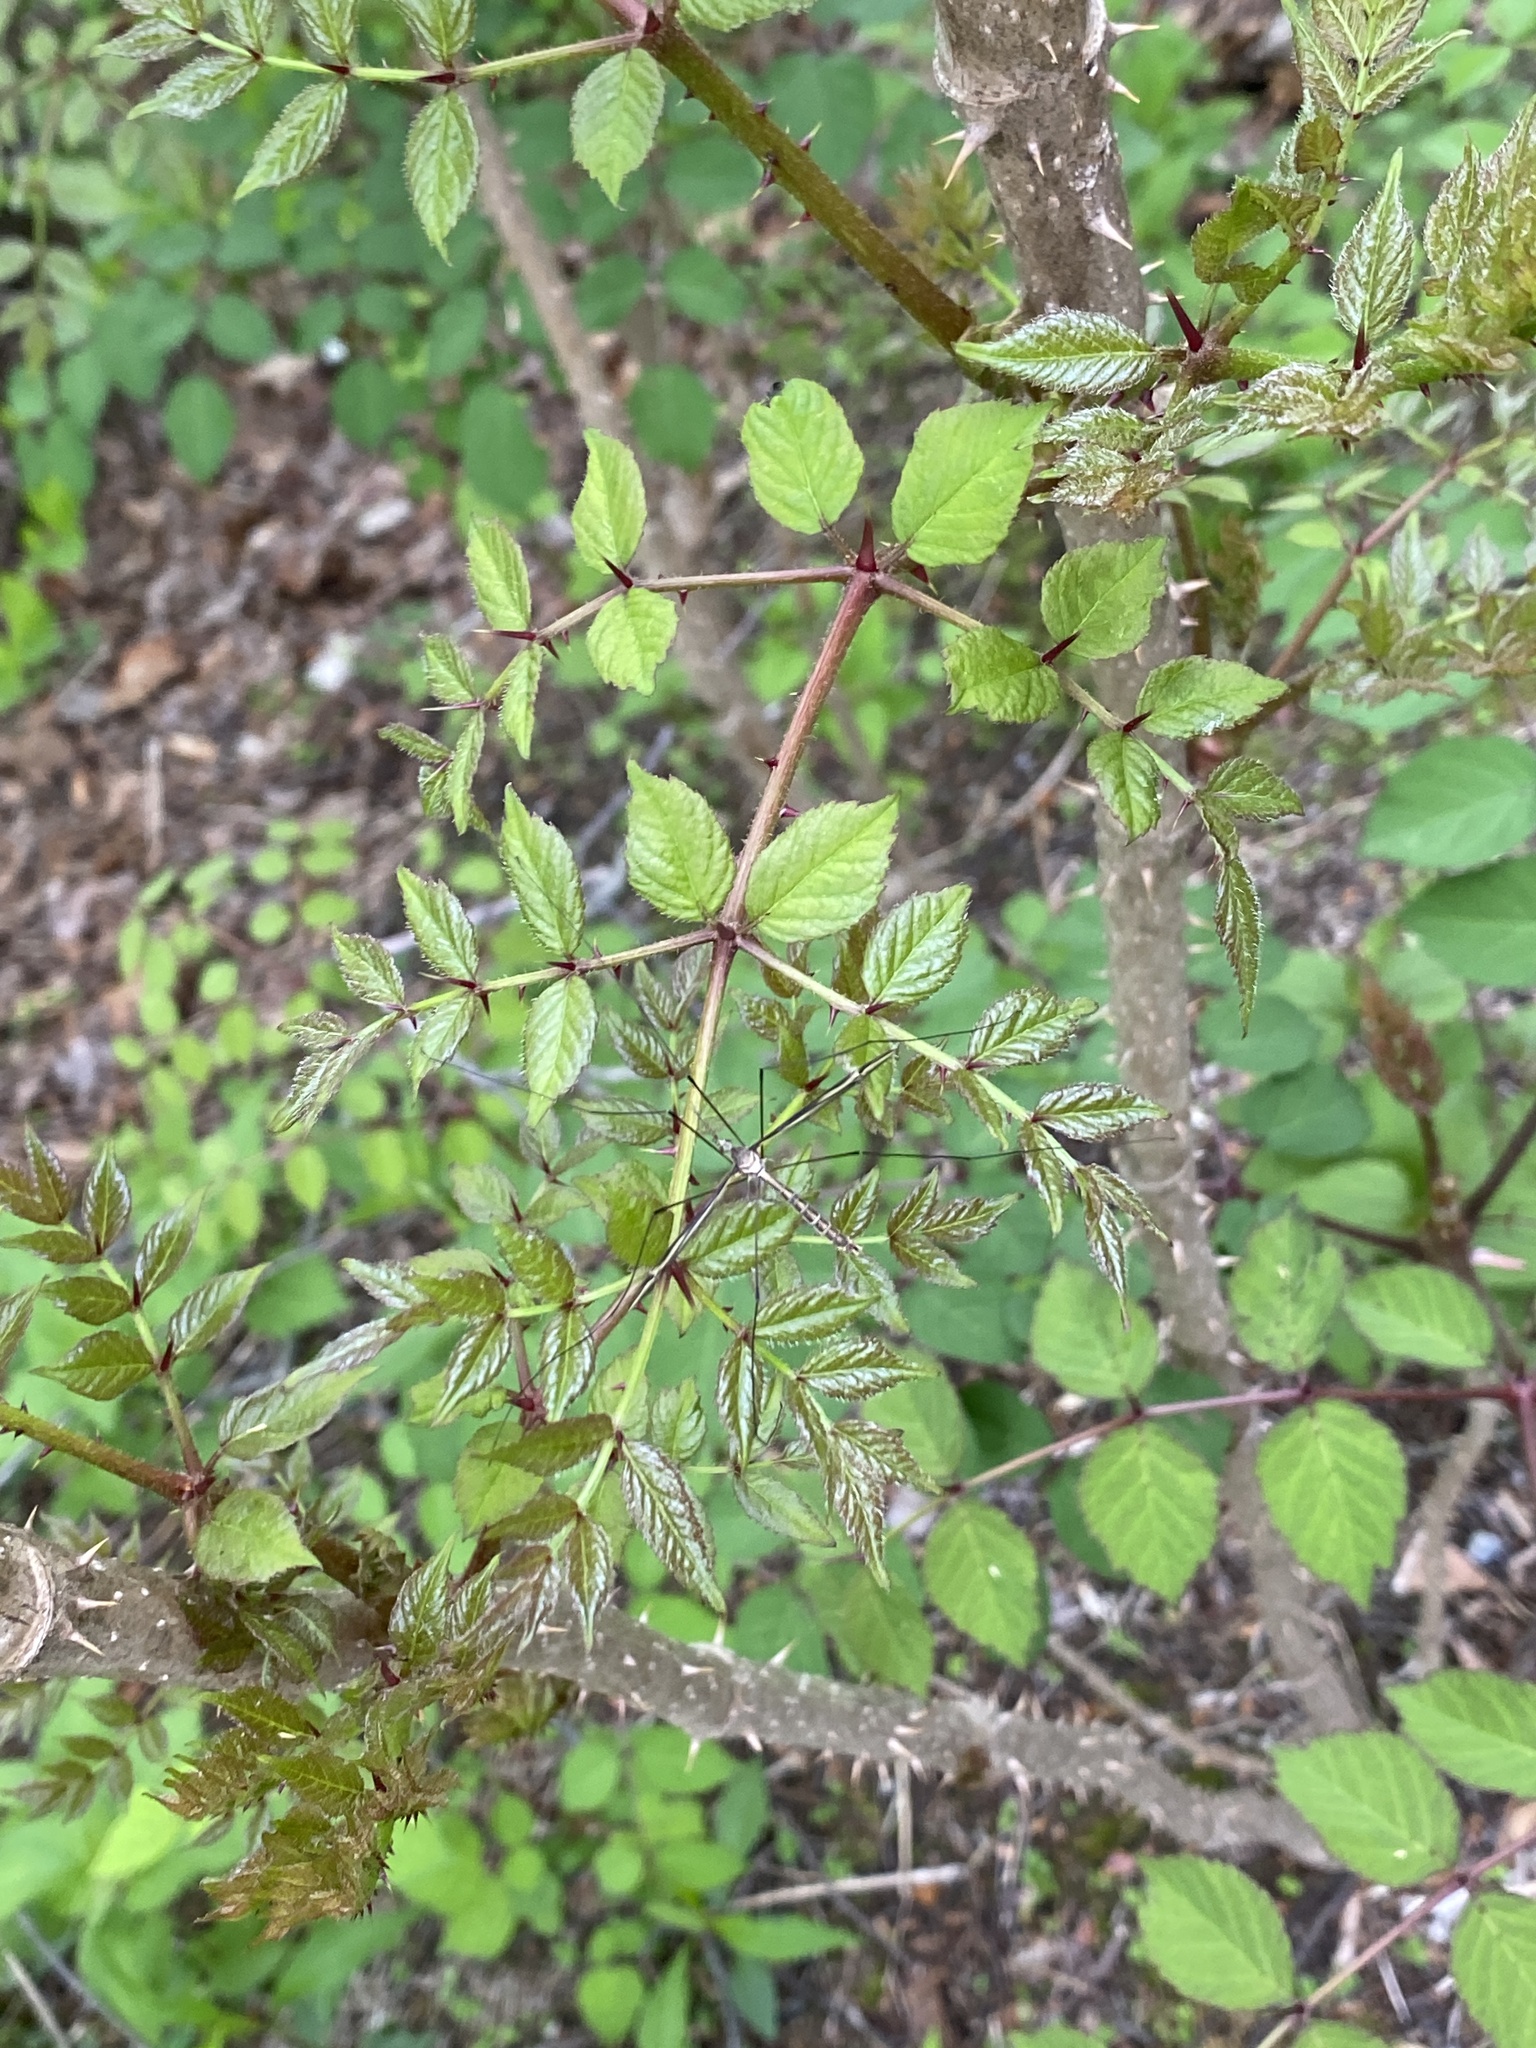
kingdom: Plantae
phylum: Tracheophyta
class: Magnoliopsida
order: Apiales
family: Araliaceae
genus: Aralia
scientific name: Aralia elata
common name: Japanese angelica-tree
